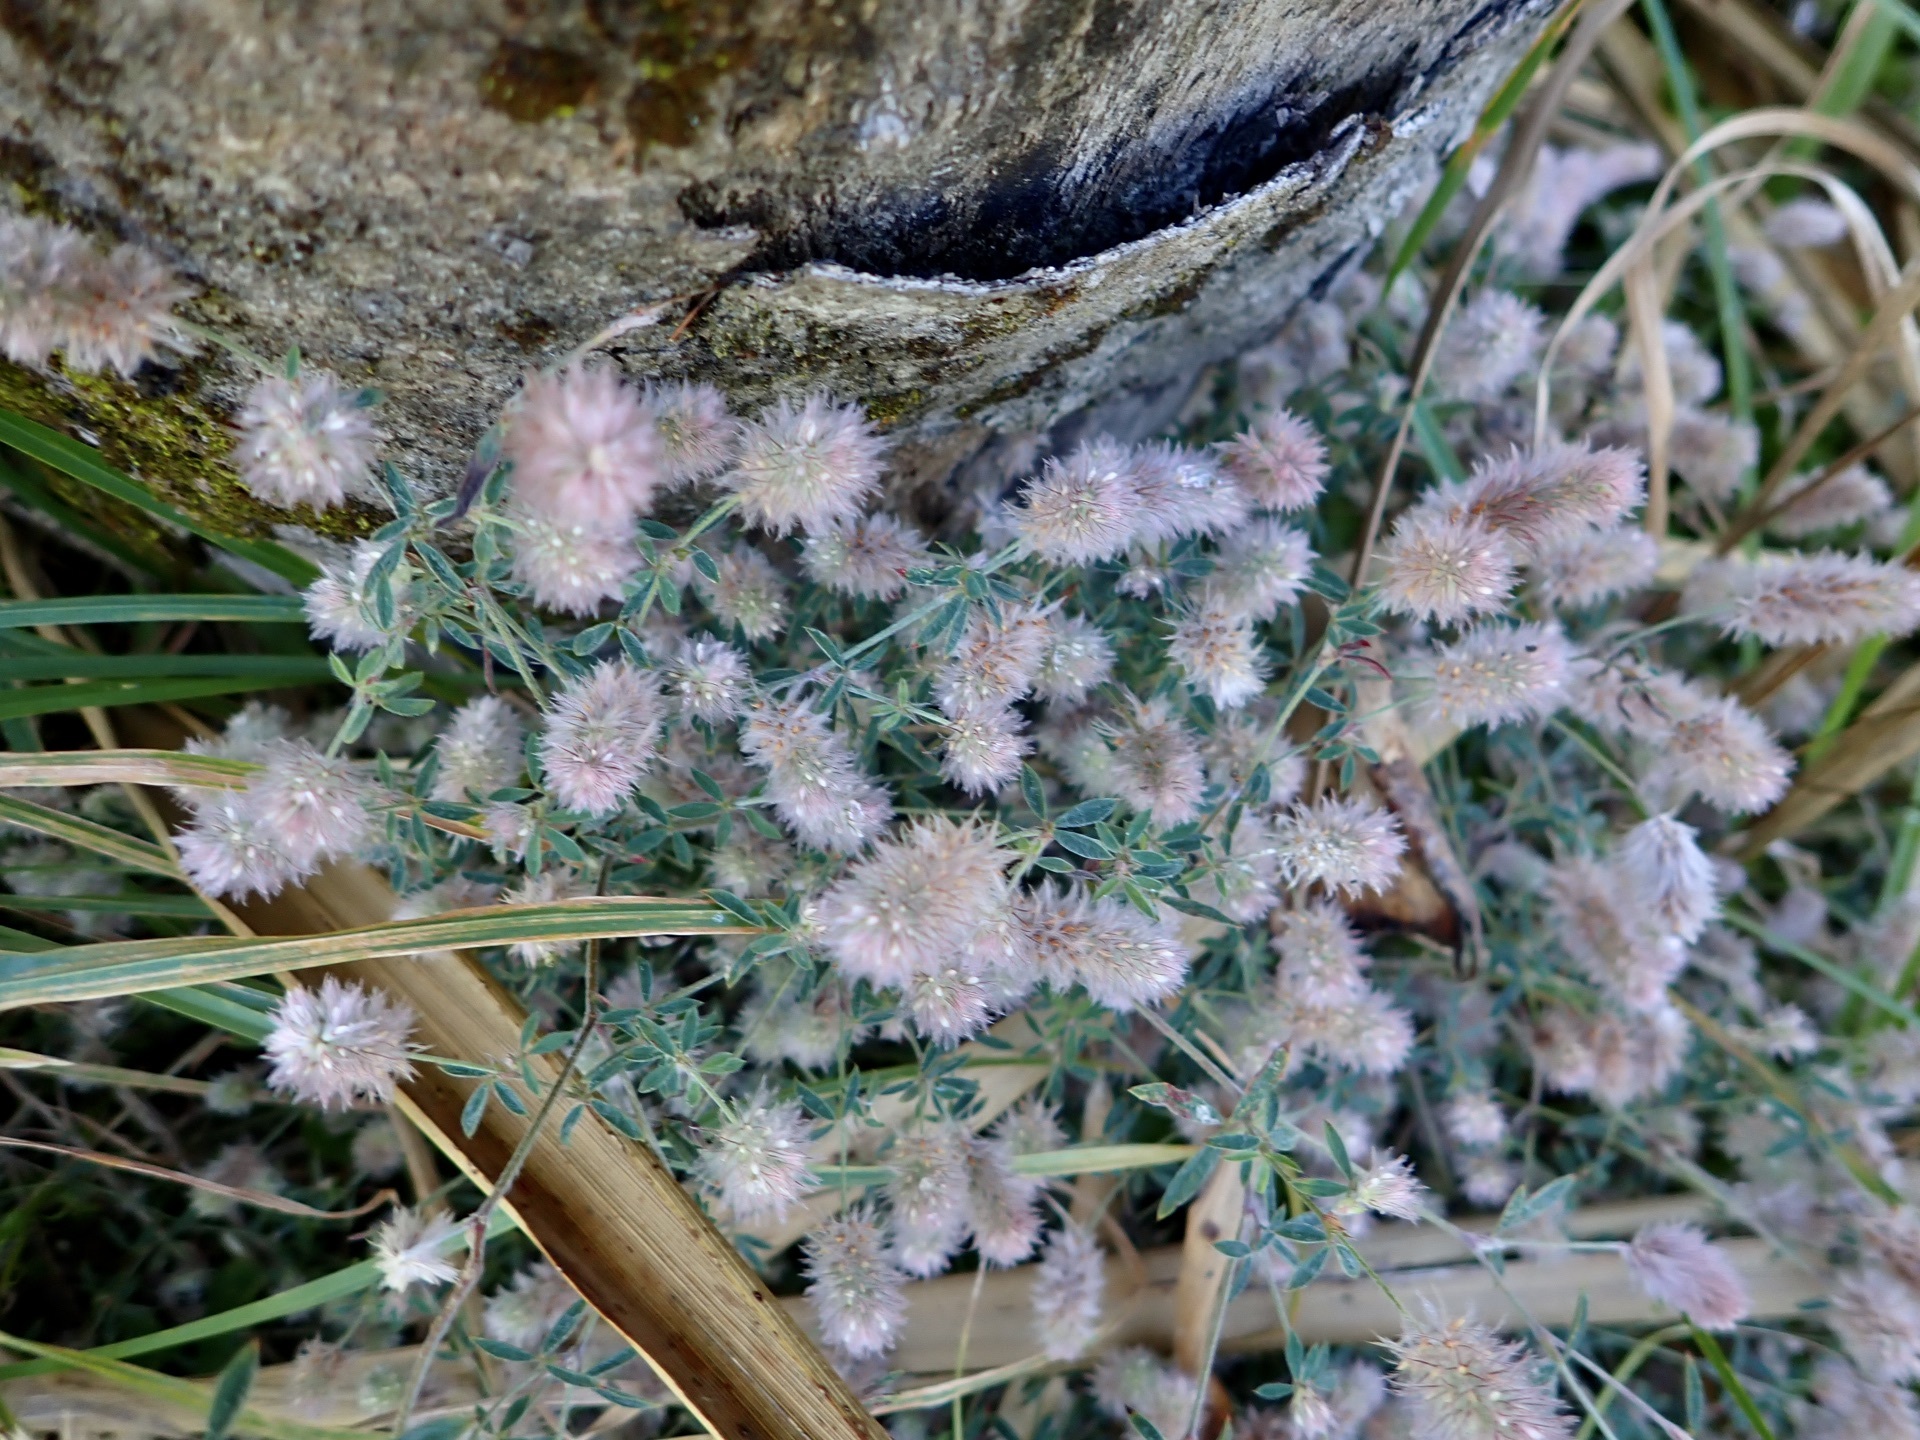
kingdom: Plantae
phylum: Tracheophyta
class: Magnoliopsida
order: Fabales
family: Fabaceae
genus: Trifolium
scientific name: Trifolium arvense
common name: Hare's-foot clover
